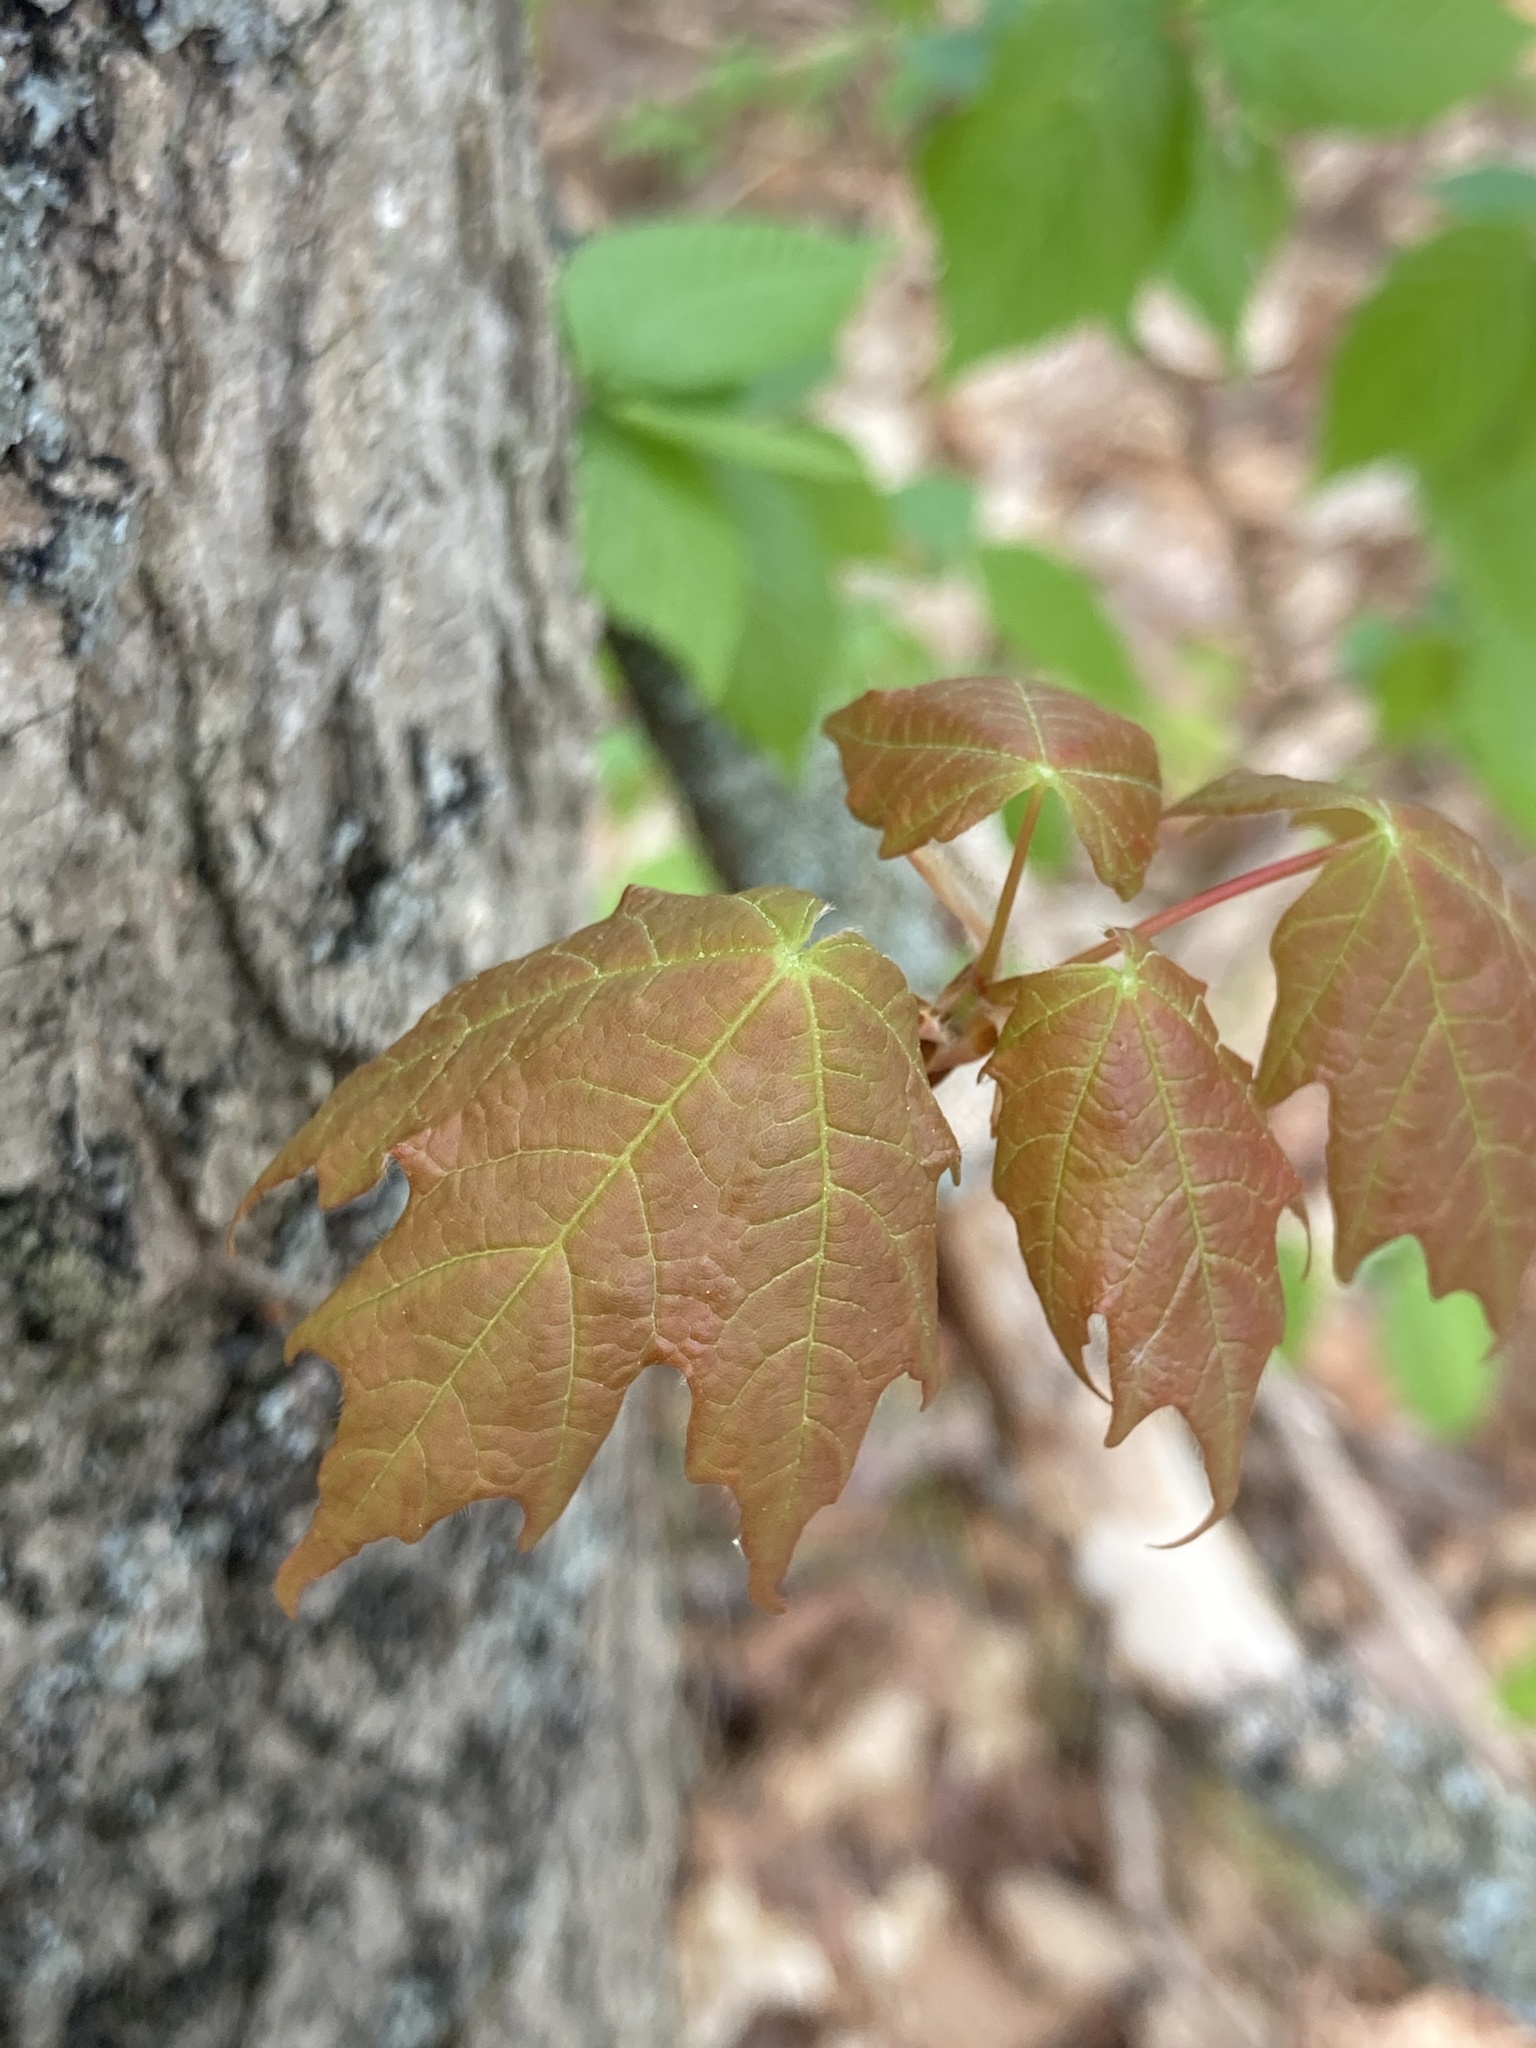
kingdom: Plantae
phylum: Tracheophyta
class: Magnoliopsida
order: Sapindales
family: Sapindaceae
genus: Acer
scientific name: Acer saccharum
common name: Sugar maple
